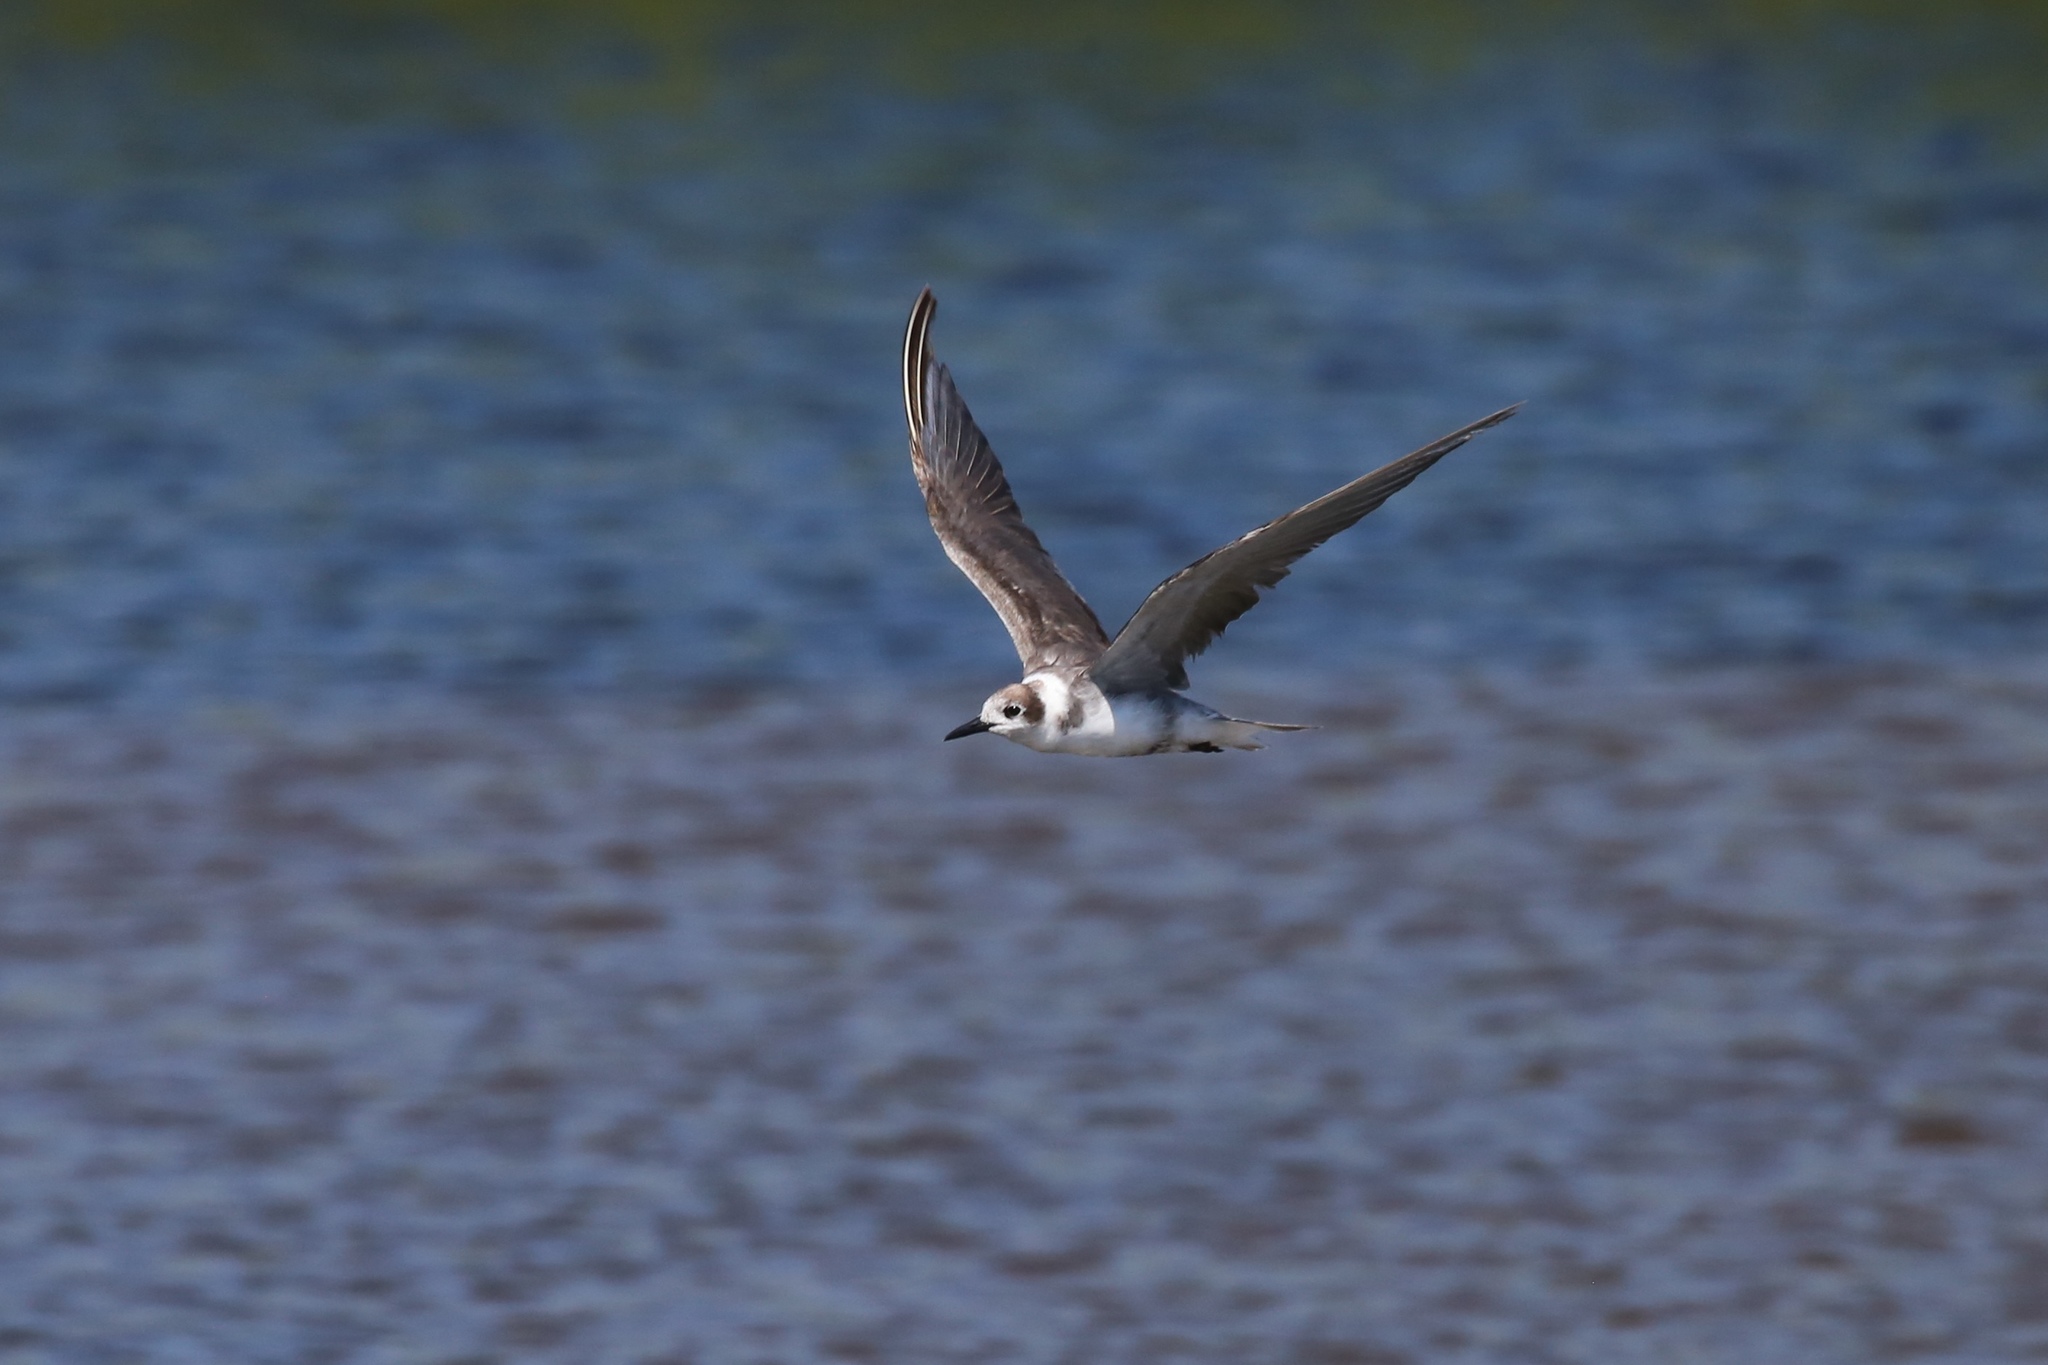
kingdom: Animalia
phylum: Chordata
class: Aves
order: Charadriiformes
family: Laridae
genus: Chlidonias
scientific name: Chlidonias niger
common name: Black tern
